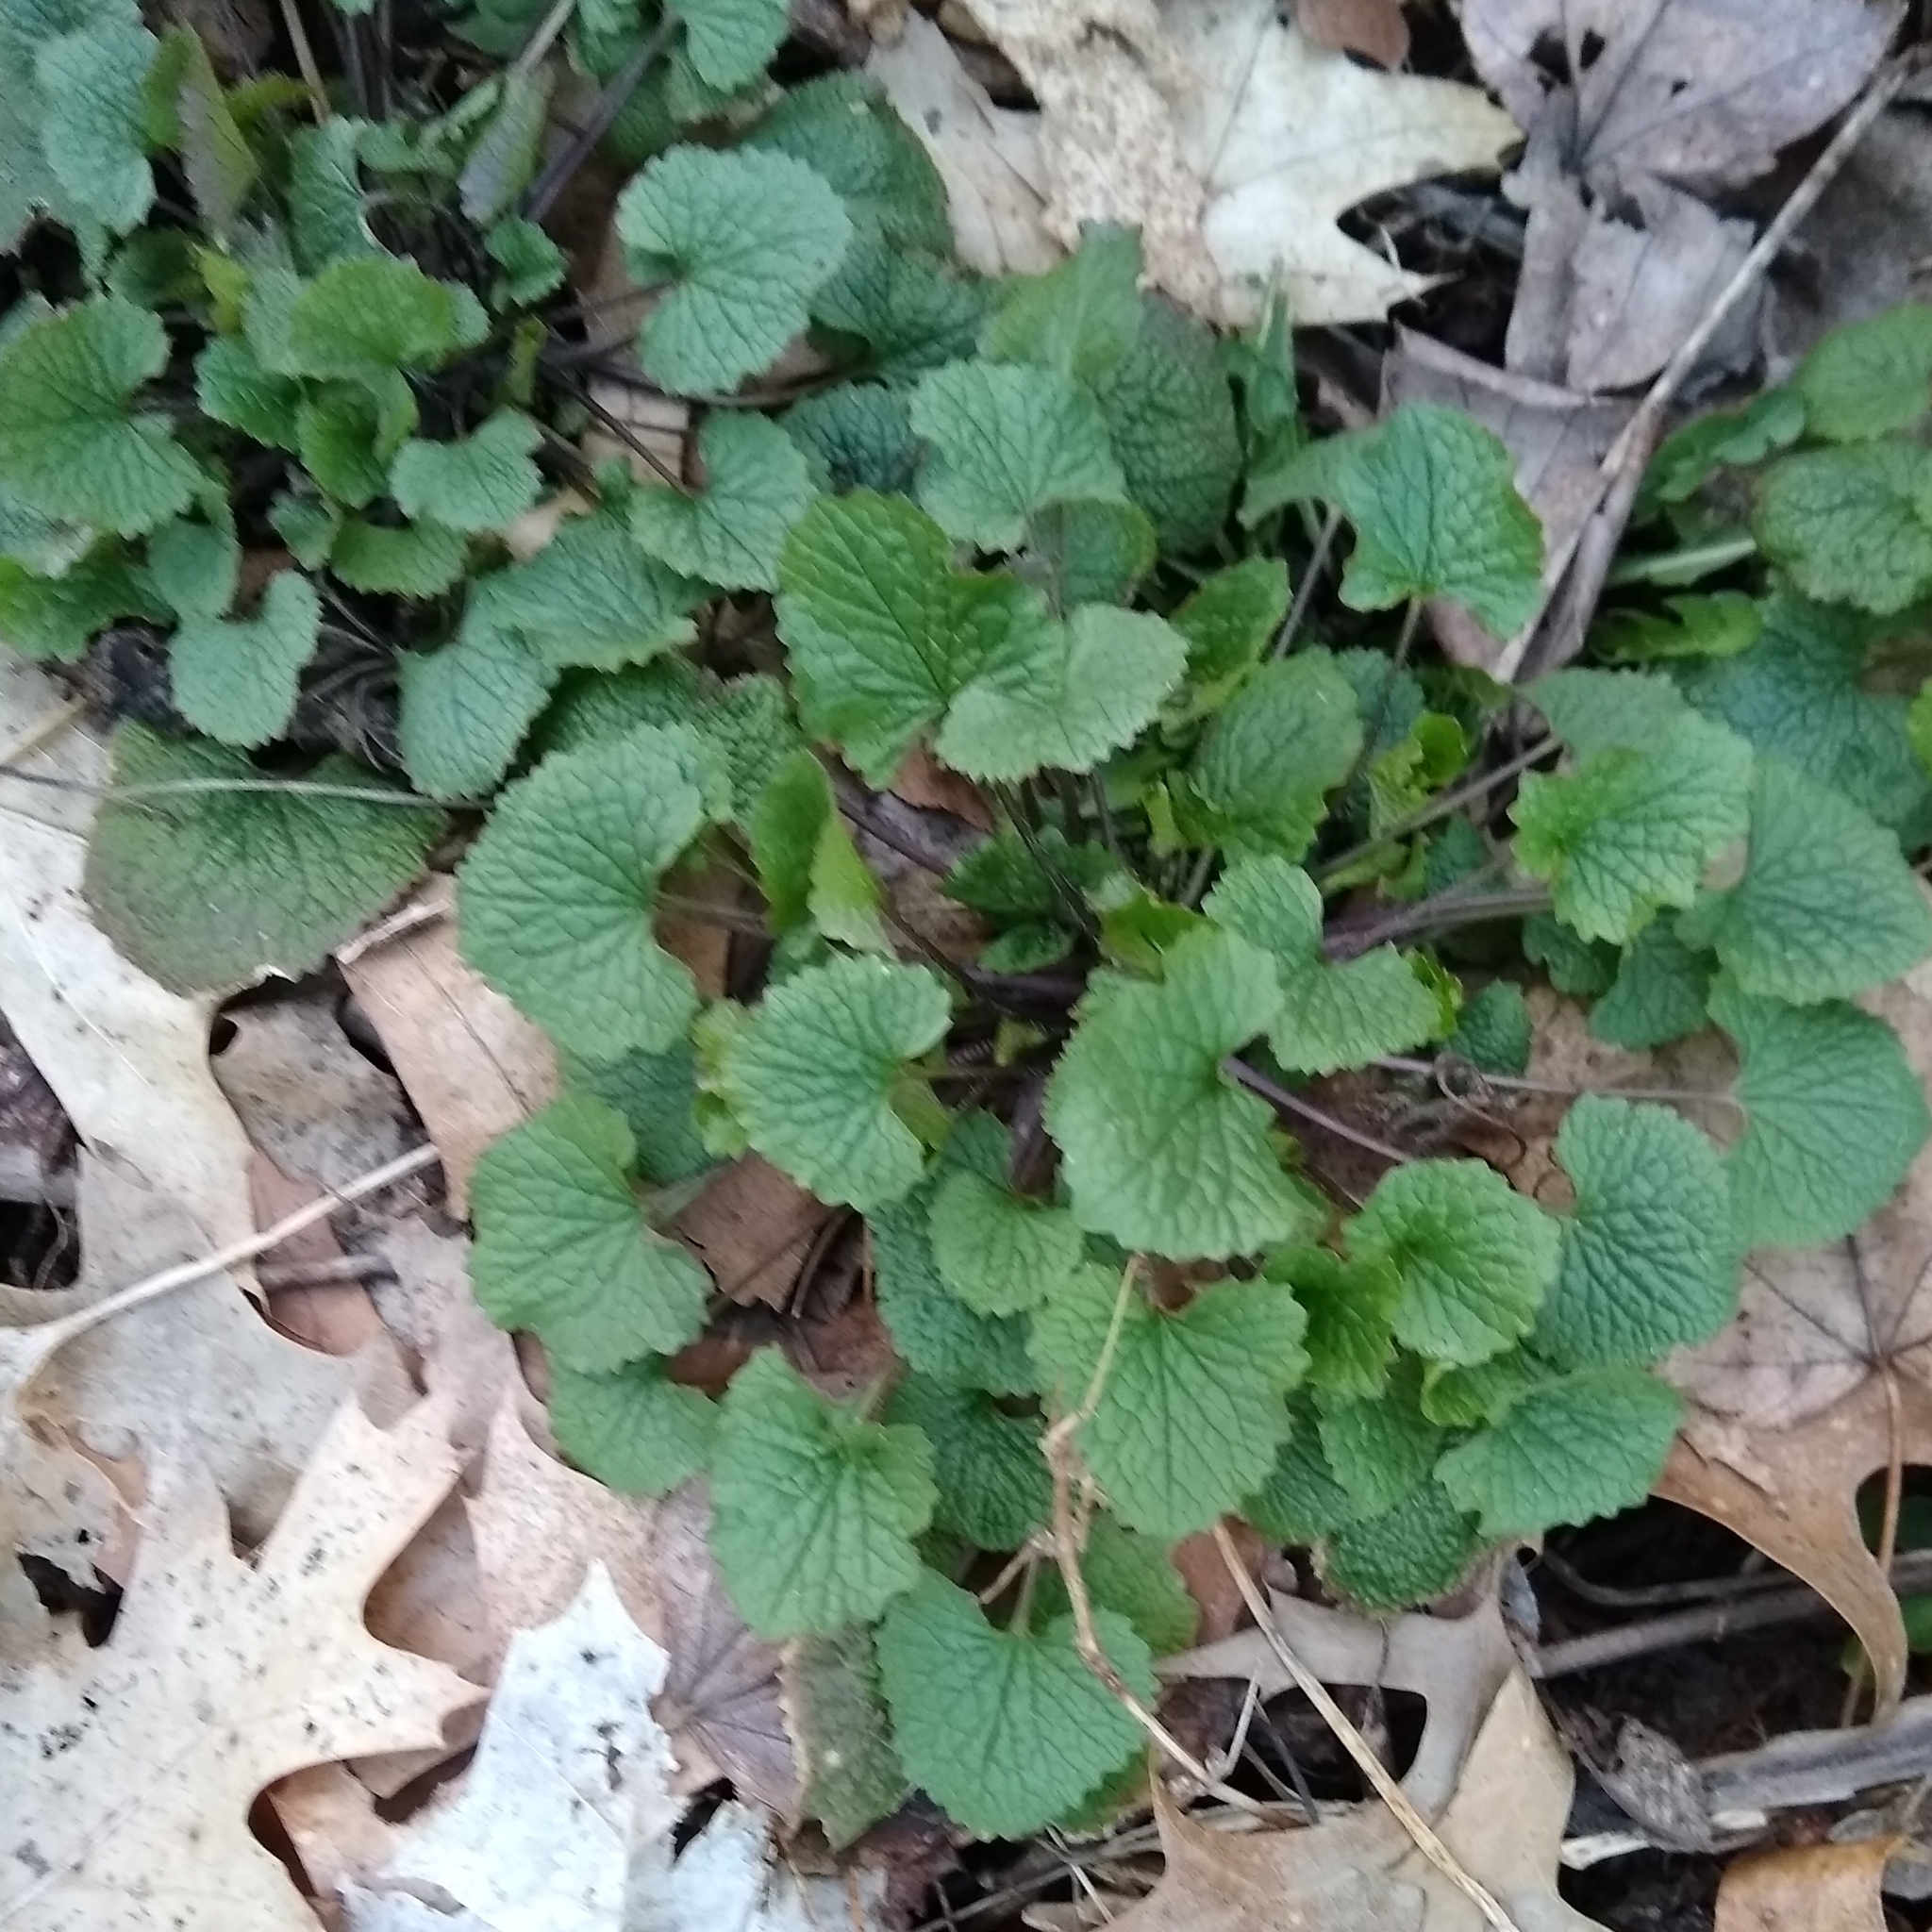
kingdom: Plantae
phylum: Tracheophyta
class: Magnoliopsida
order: Brassicales
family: Brassicaceae
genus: Alliaria
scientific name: Alliaria petiolata
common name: Garlic mustard
